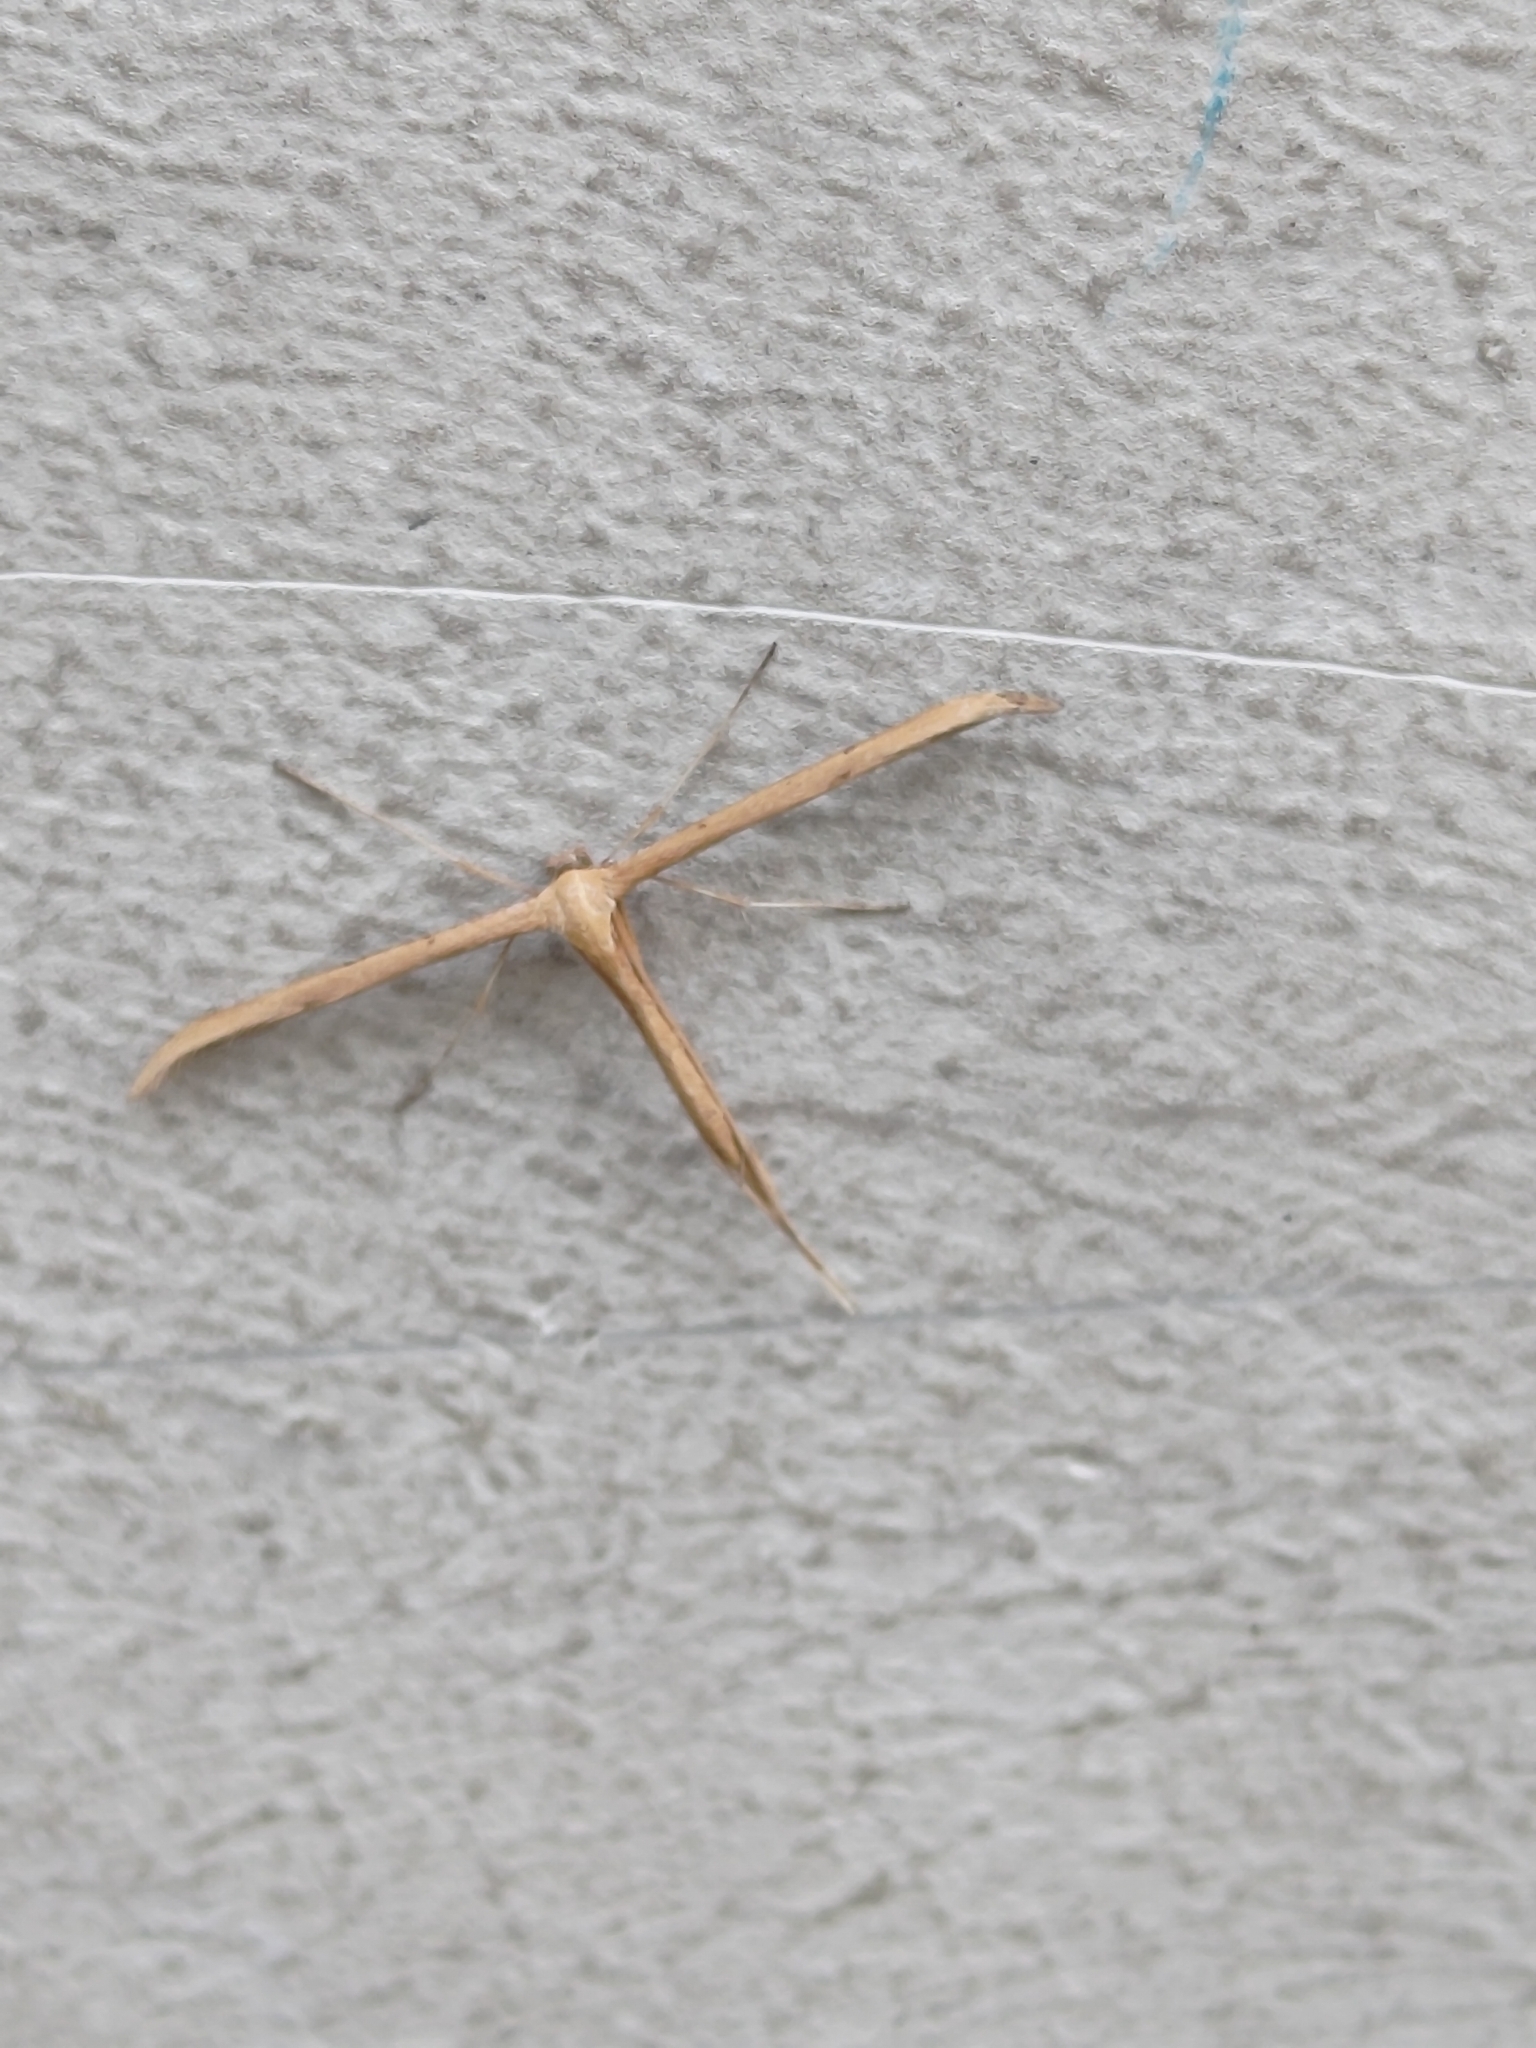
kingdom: Animalia
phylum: Arthropoda
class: Insecta
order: Lepidoptera
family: Pterophoridae
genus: Emmelina
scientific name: Emmelina monodactyla
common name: Common plume
